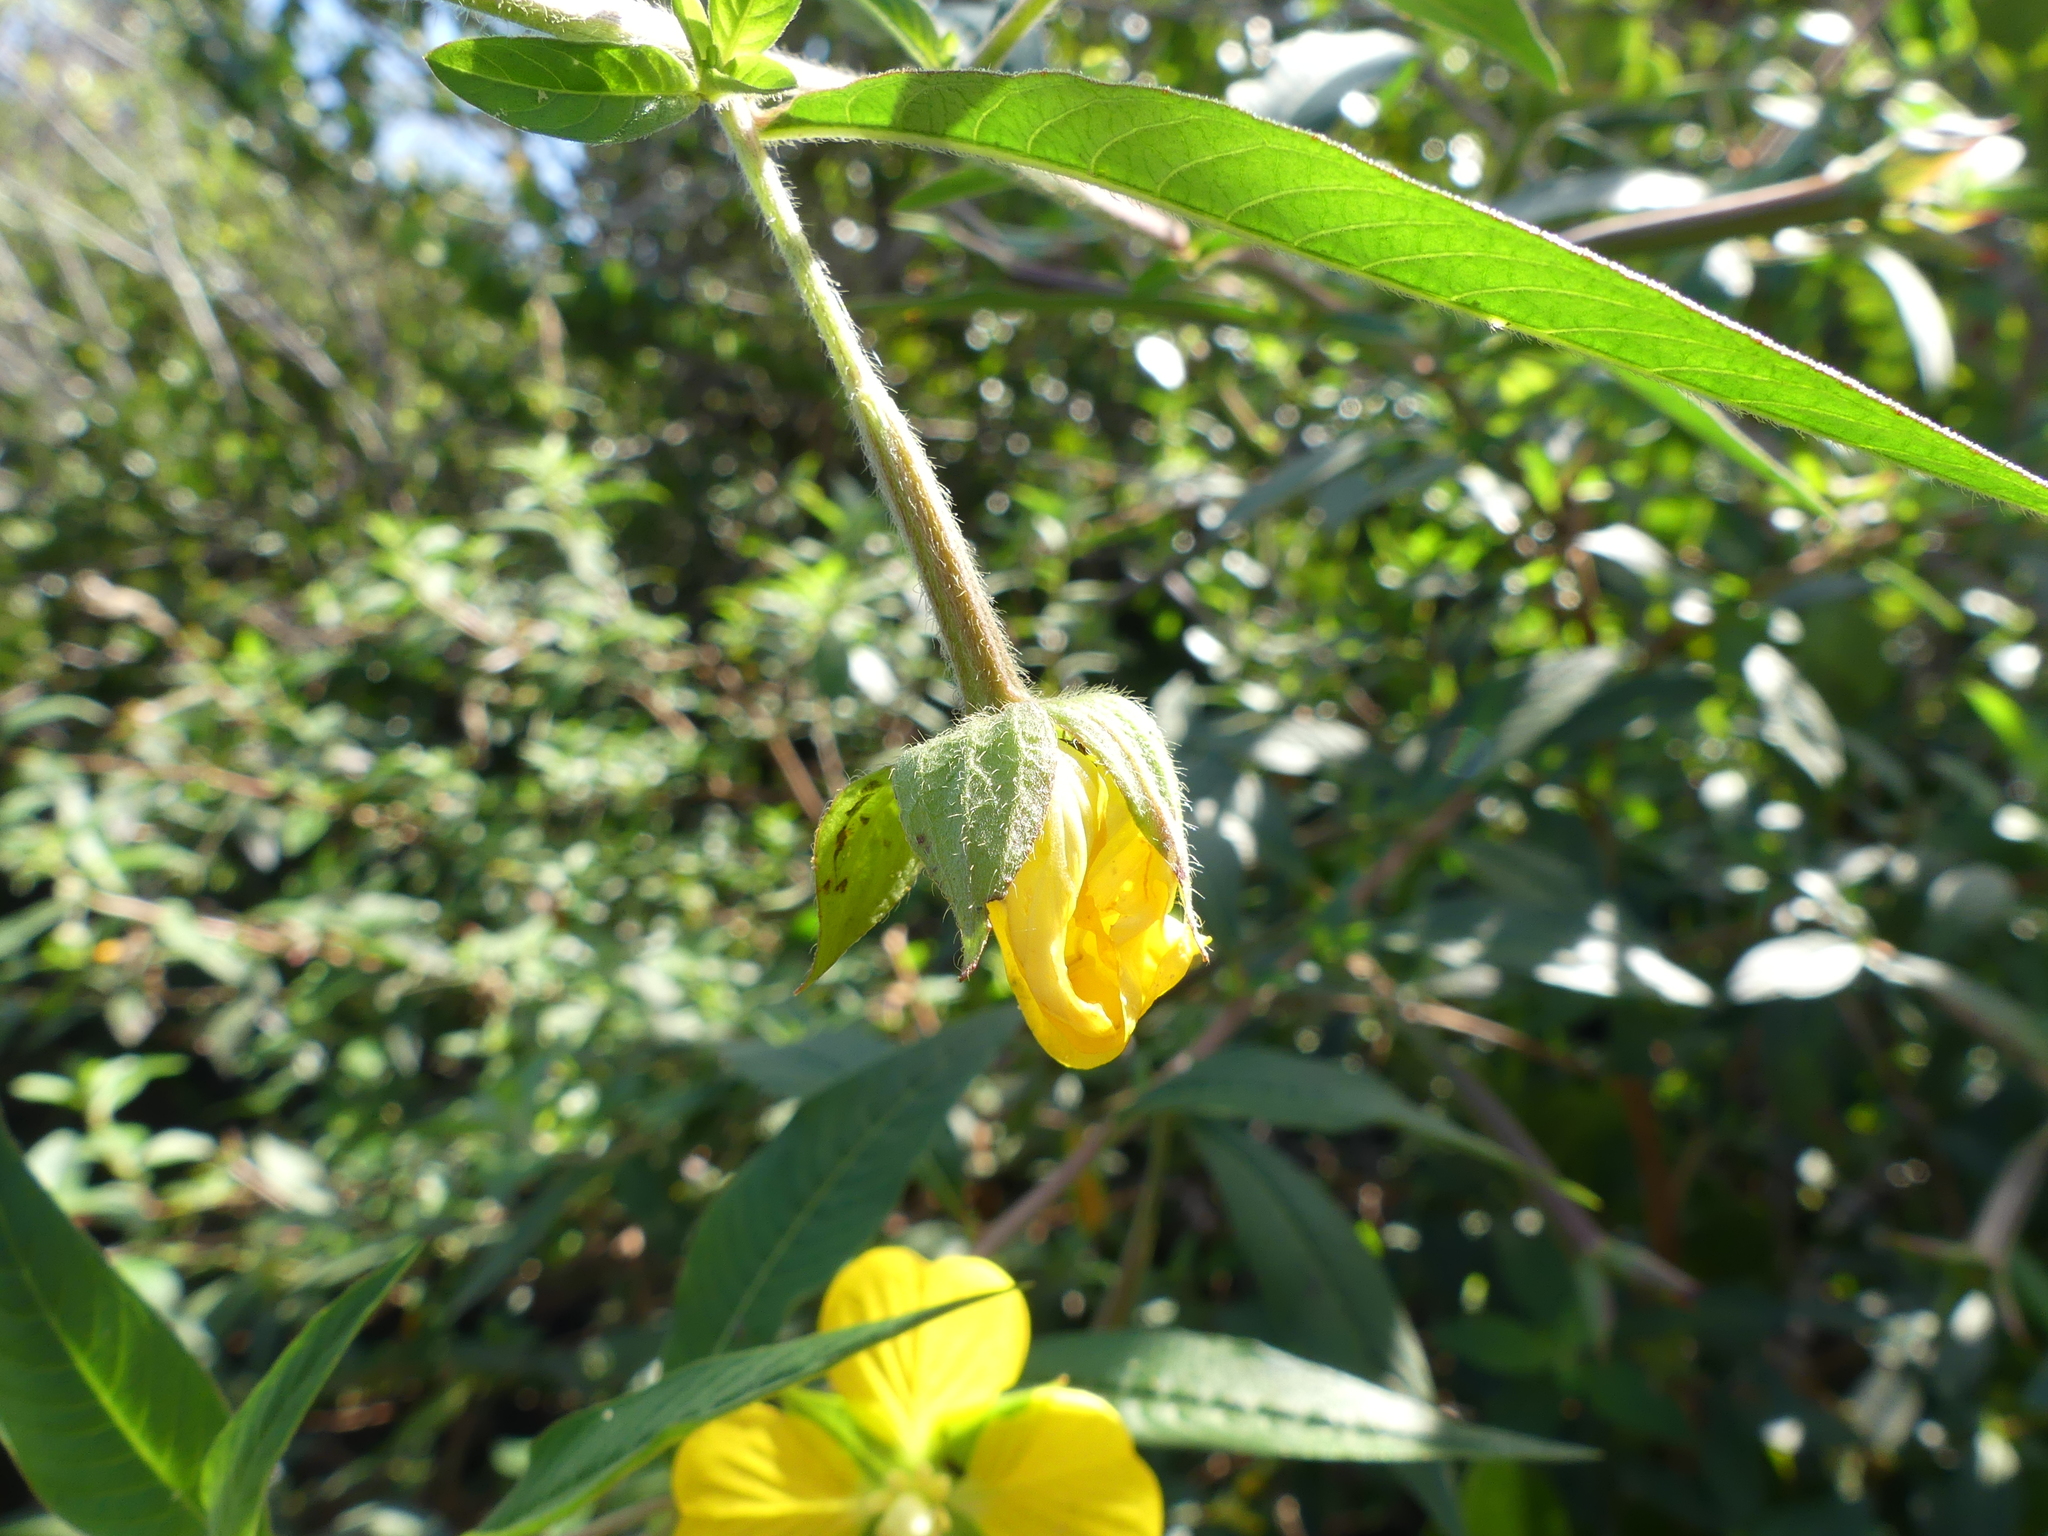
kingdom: Plantae
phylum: Tracheophyta
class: Magnoliopsida
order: Myrtales
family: Onagraceae
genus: Ludwigia
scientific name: Ludwigia octovalvis
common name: Water-primrose
